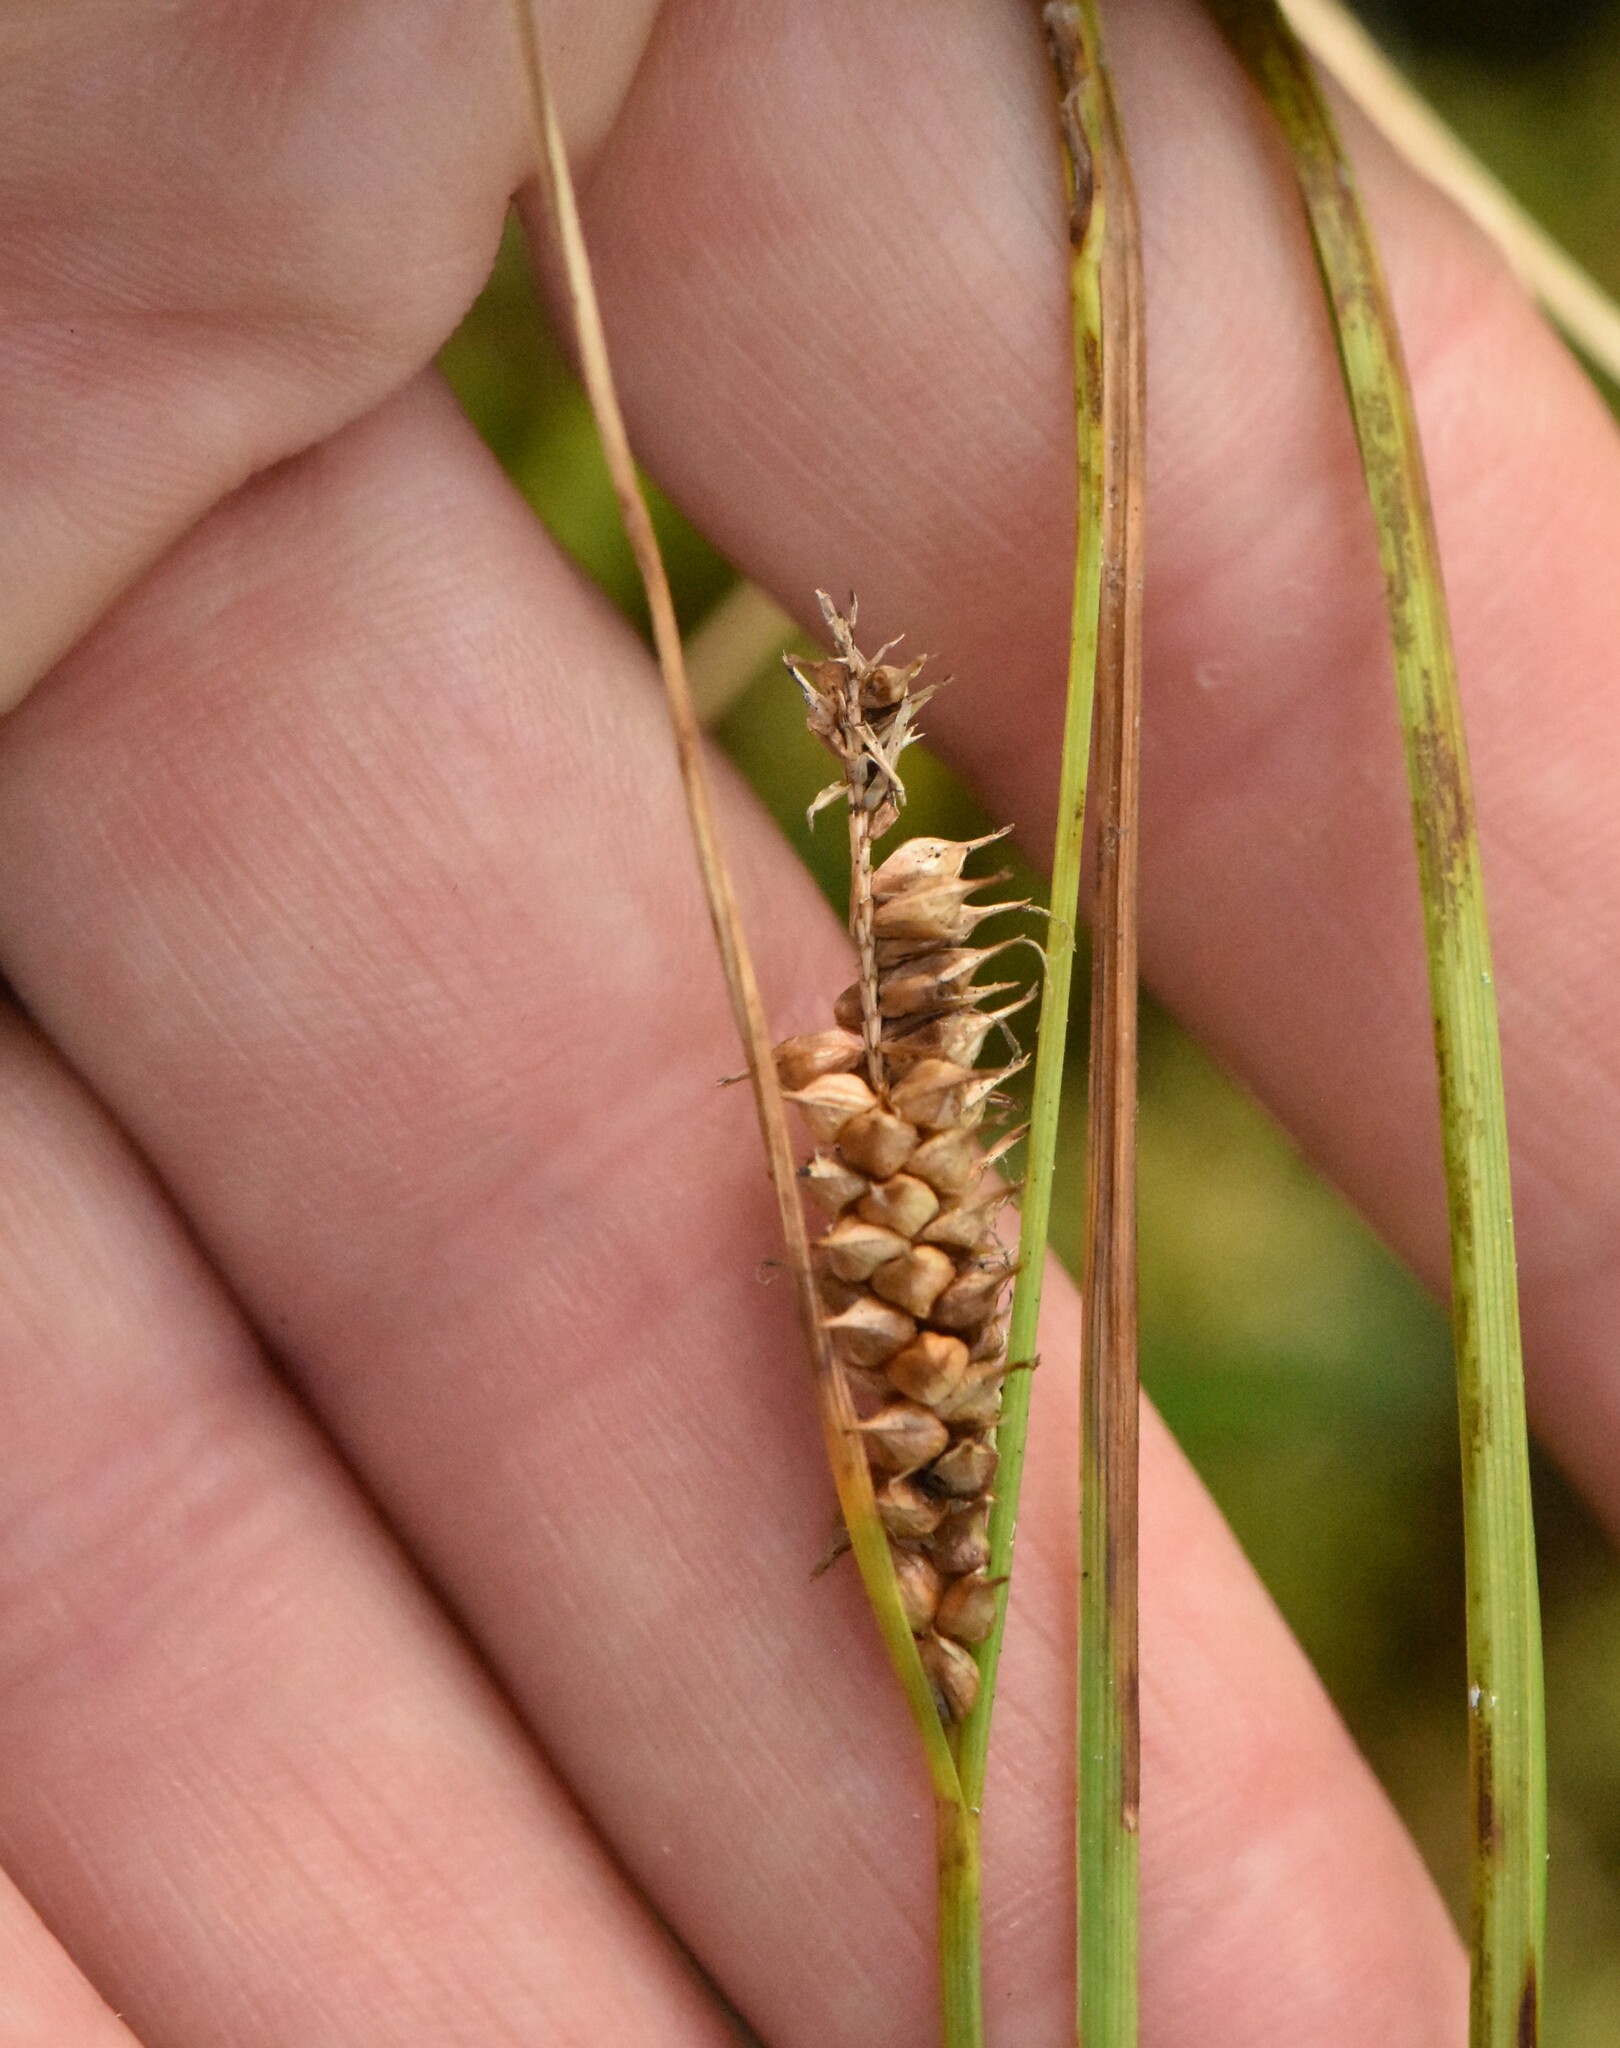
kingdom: Plantae
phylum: Tracheophyta
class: Liliopsida
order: Poales
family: Cyperaceae
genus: Carex
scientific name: Carex rostrata
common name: Bottle sedge
